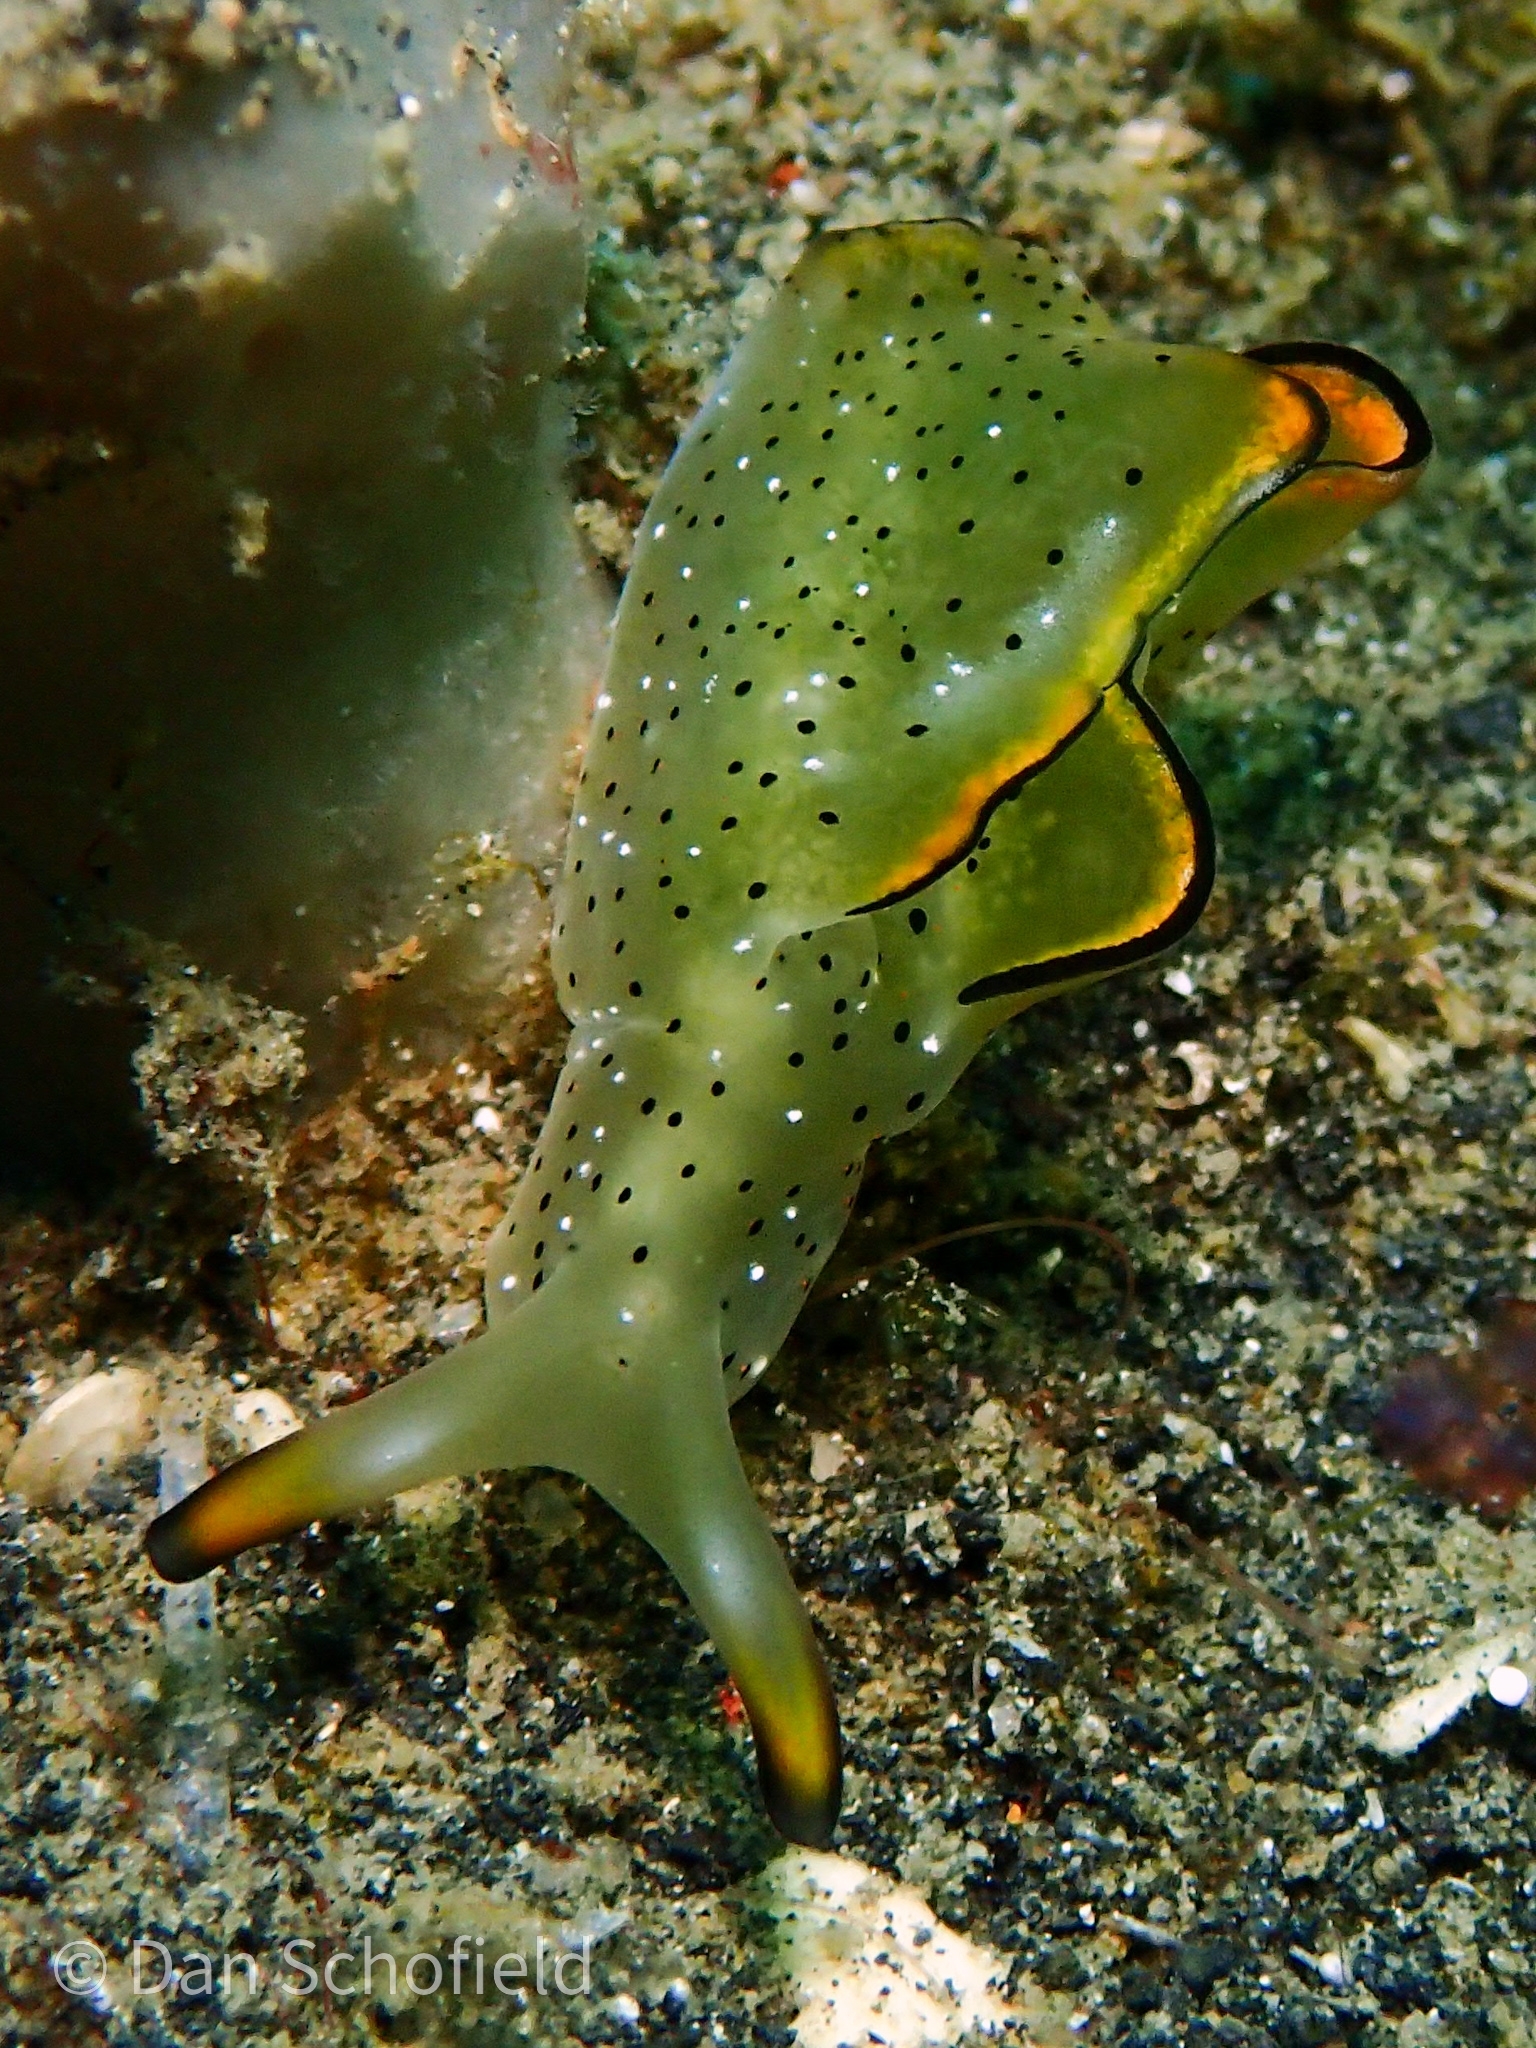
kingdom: Animalia
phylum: Mollusca
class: Gastropoda
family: Plakobranchidae
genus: Elysia
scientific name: Elysia marginata
